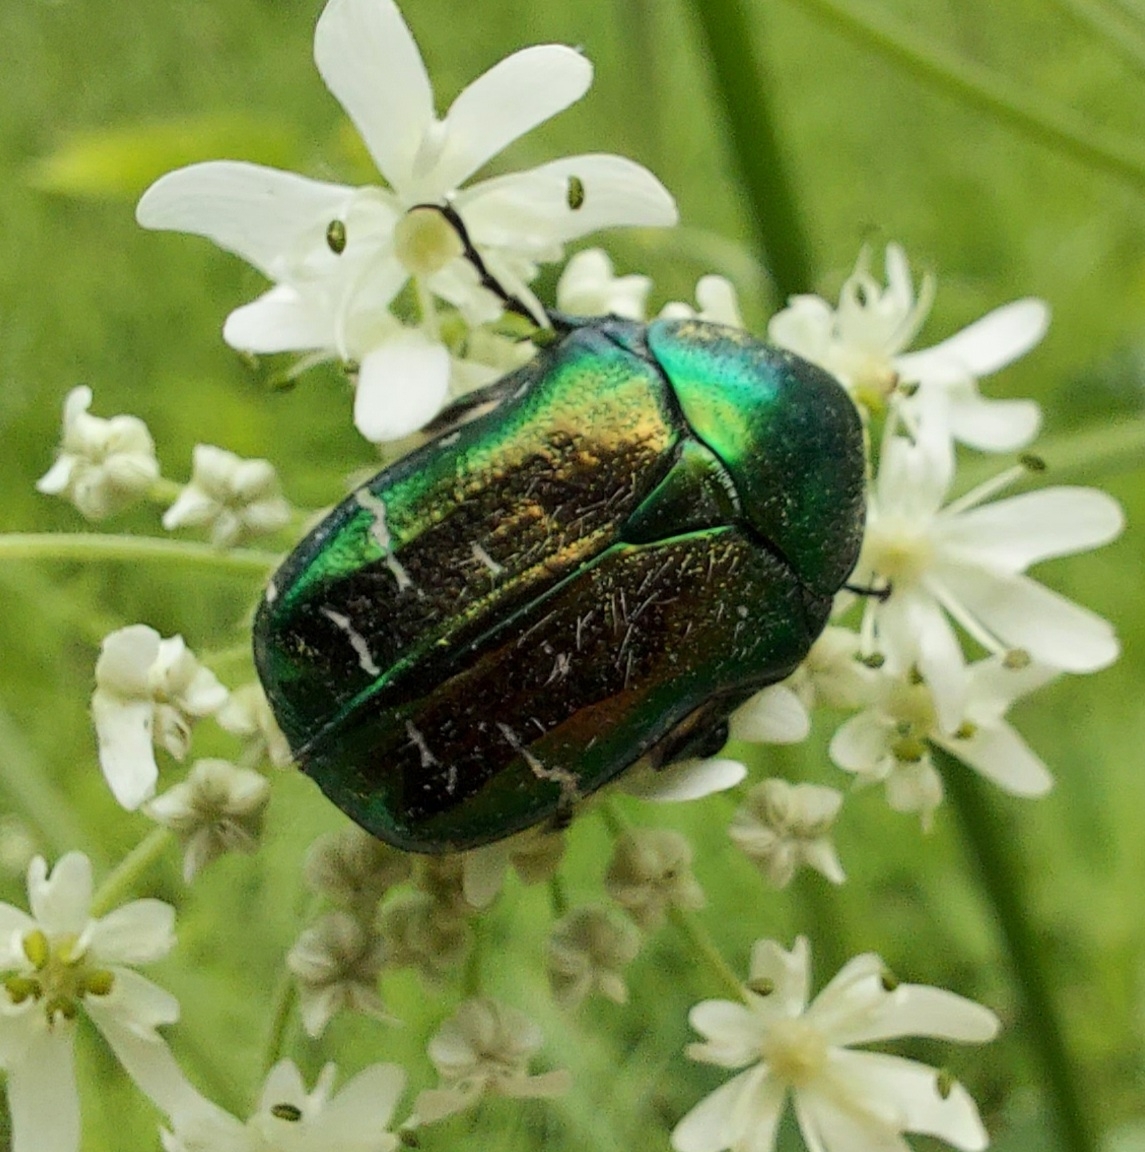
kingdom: Animalia
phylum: Arthropoda
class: Insecta
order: Coleoptera
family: Scarabaeidae
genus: Cetonia
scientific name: Cetonia aurata
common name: Rose chafer
